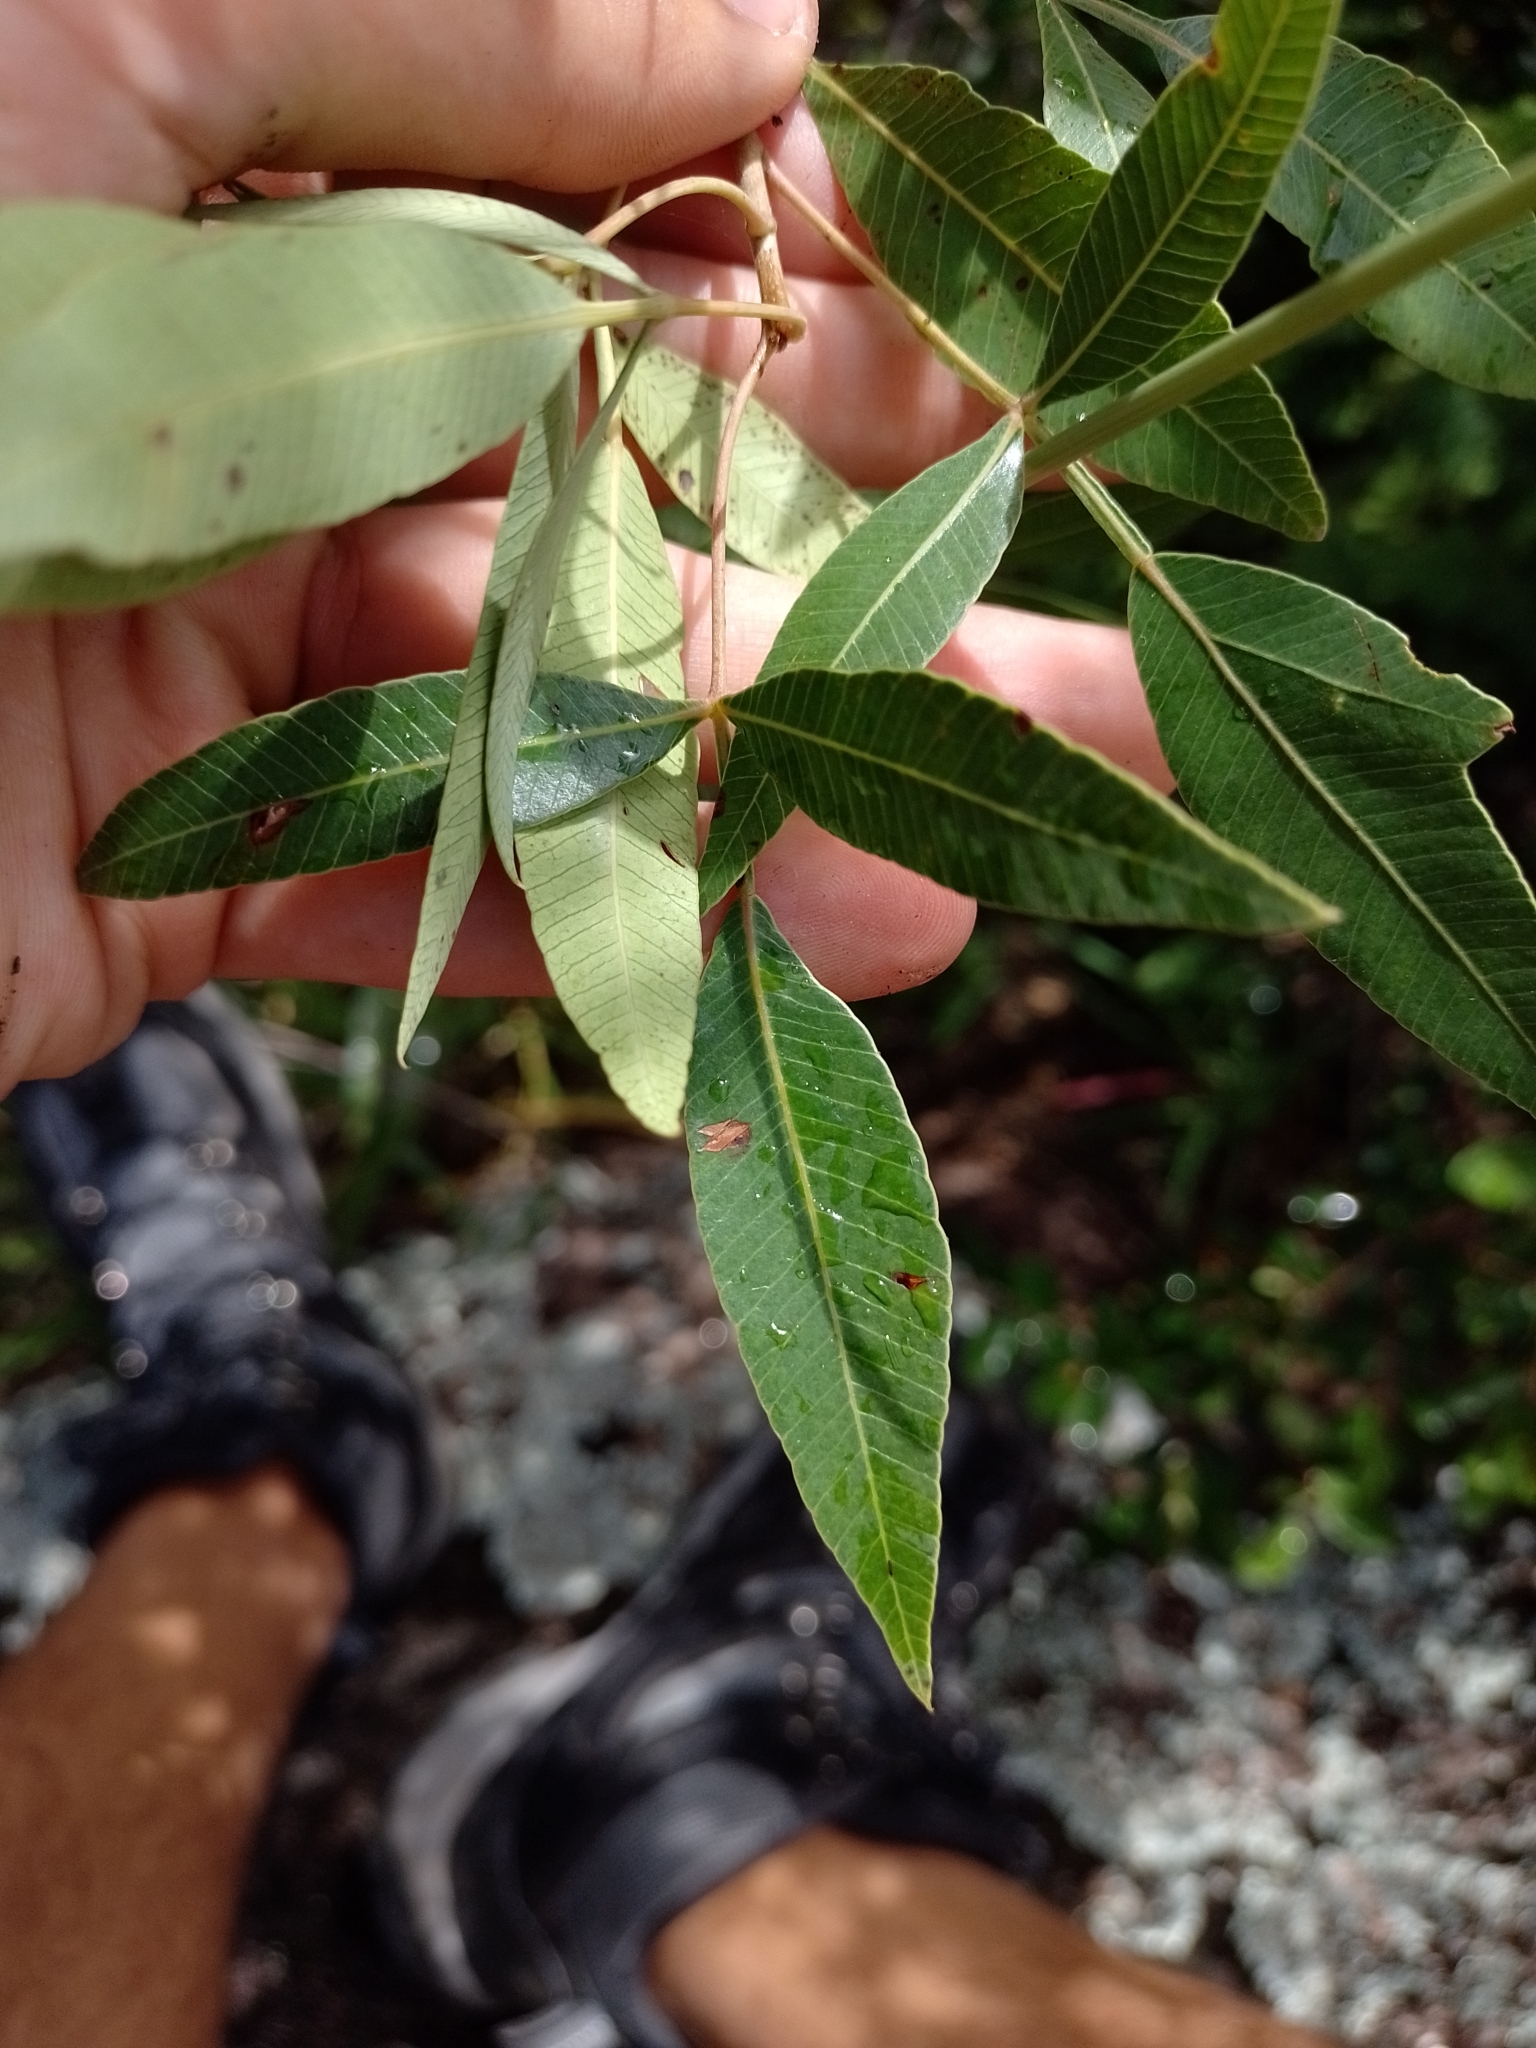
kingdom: Plantae
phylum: Tracheophyta
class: Magnoliopsida
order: Sapindales
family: Anacardiaceae
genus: Lithraea
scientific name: Lithraea molleoides
